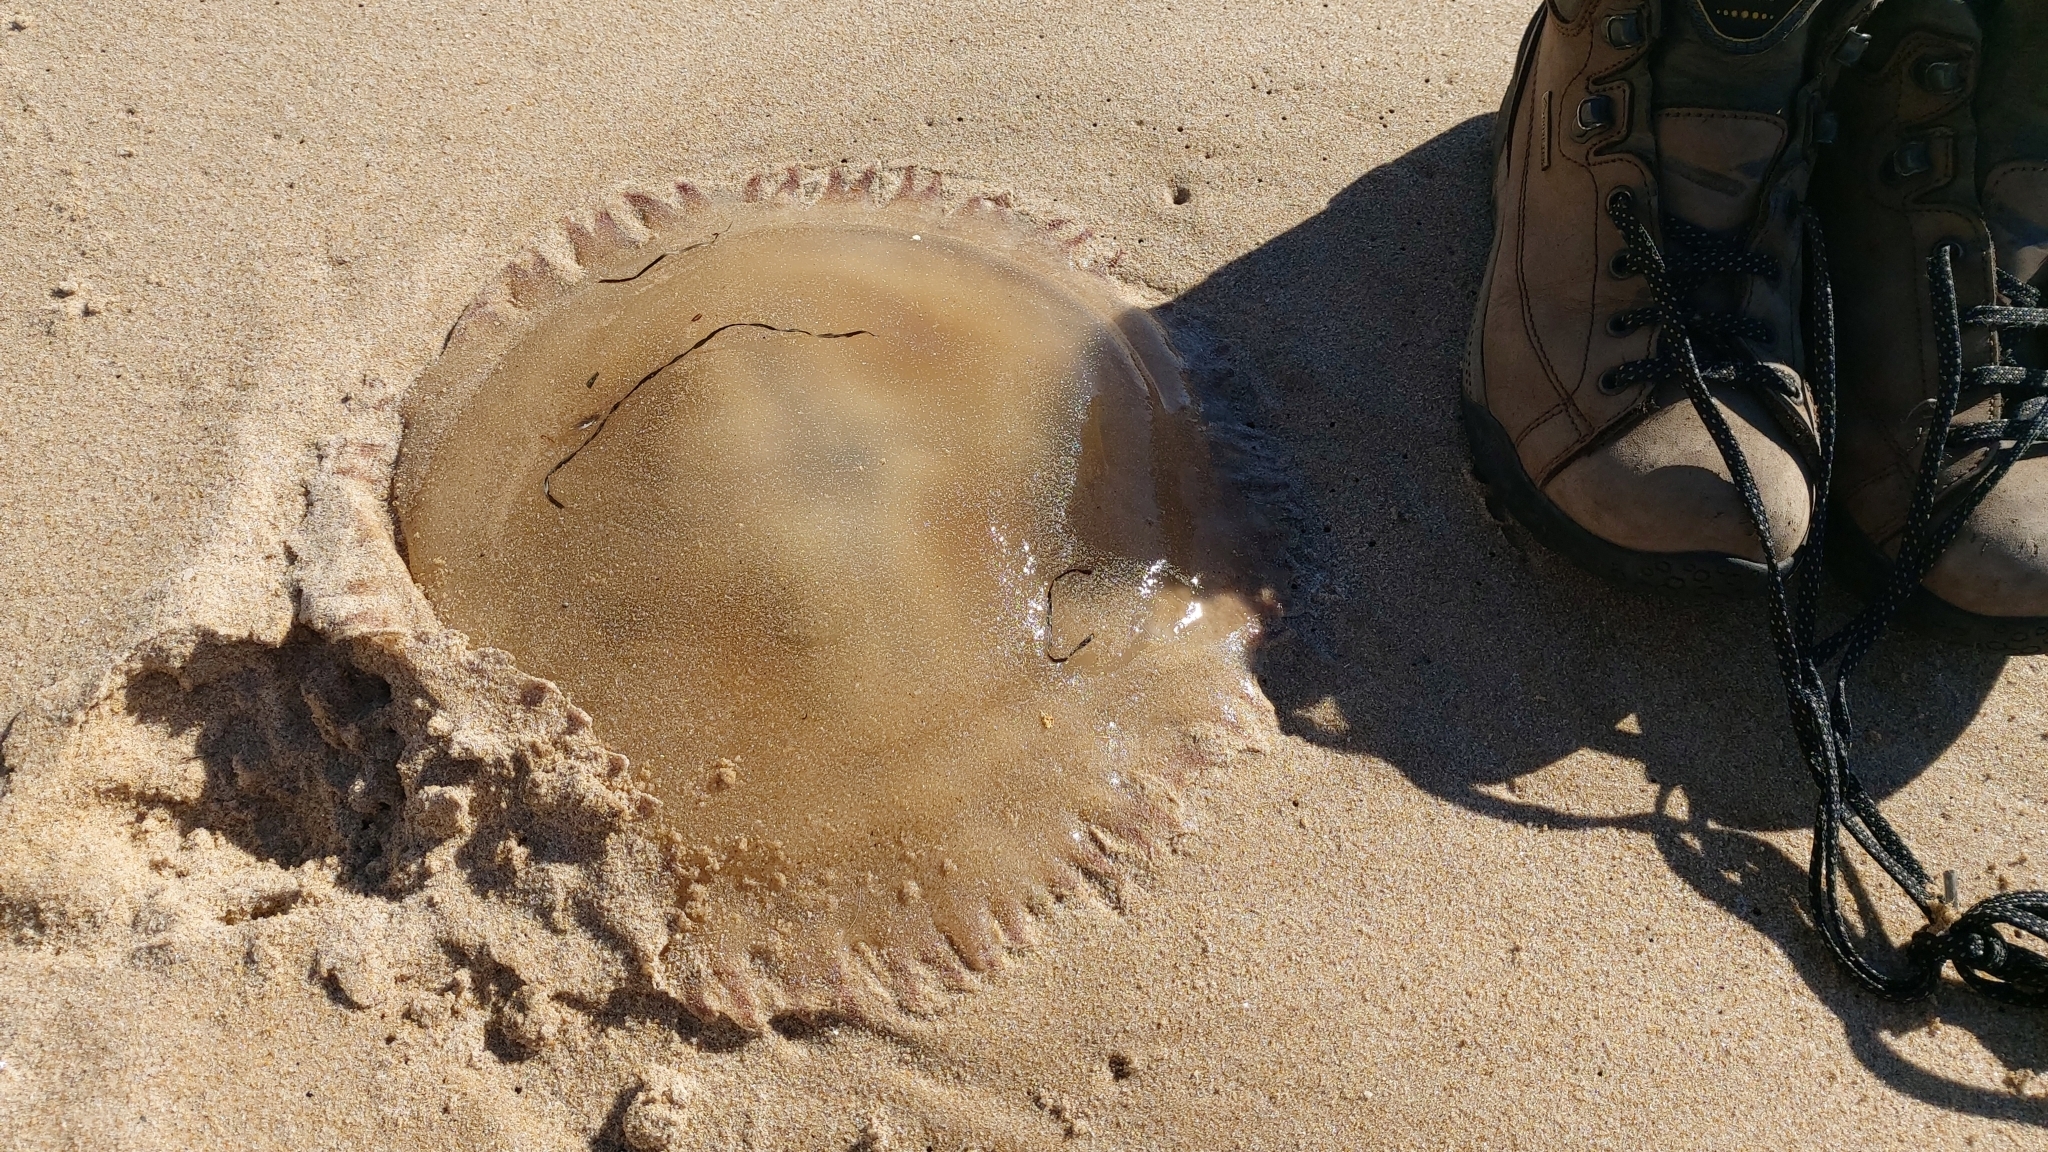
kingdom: Animalia
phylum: Cnidaria
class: Scyphozoa
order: Rhizostomeae
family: Catostylidae
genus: Catostylus
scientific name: Catostylus tagi
